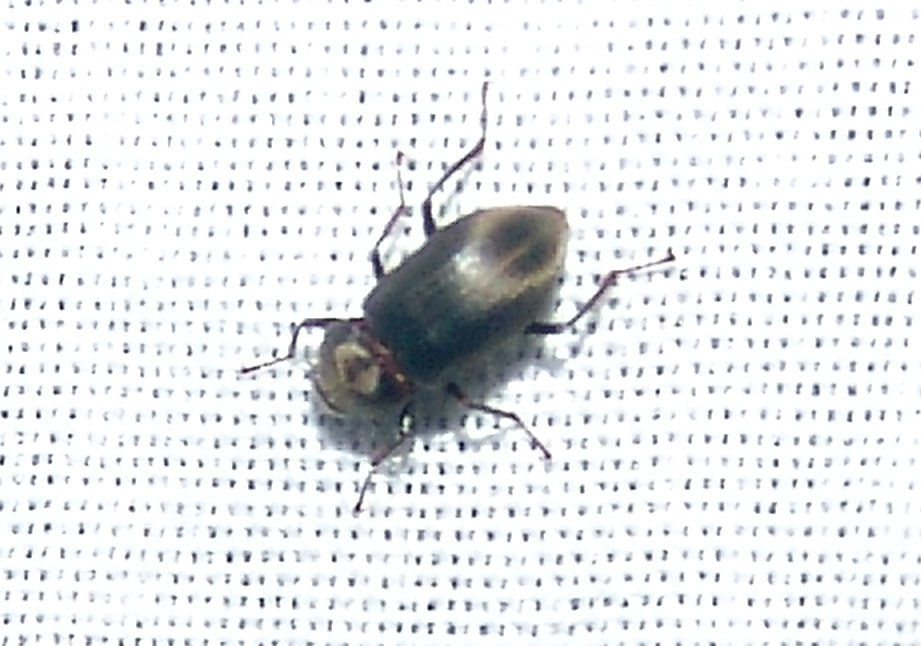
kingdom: Animalia
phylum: Arthropoda
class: Insecta
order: Coleoptera
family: Dryopidae
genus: Helichus
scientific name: Helichus lithophilus
